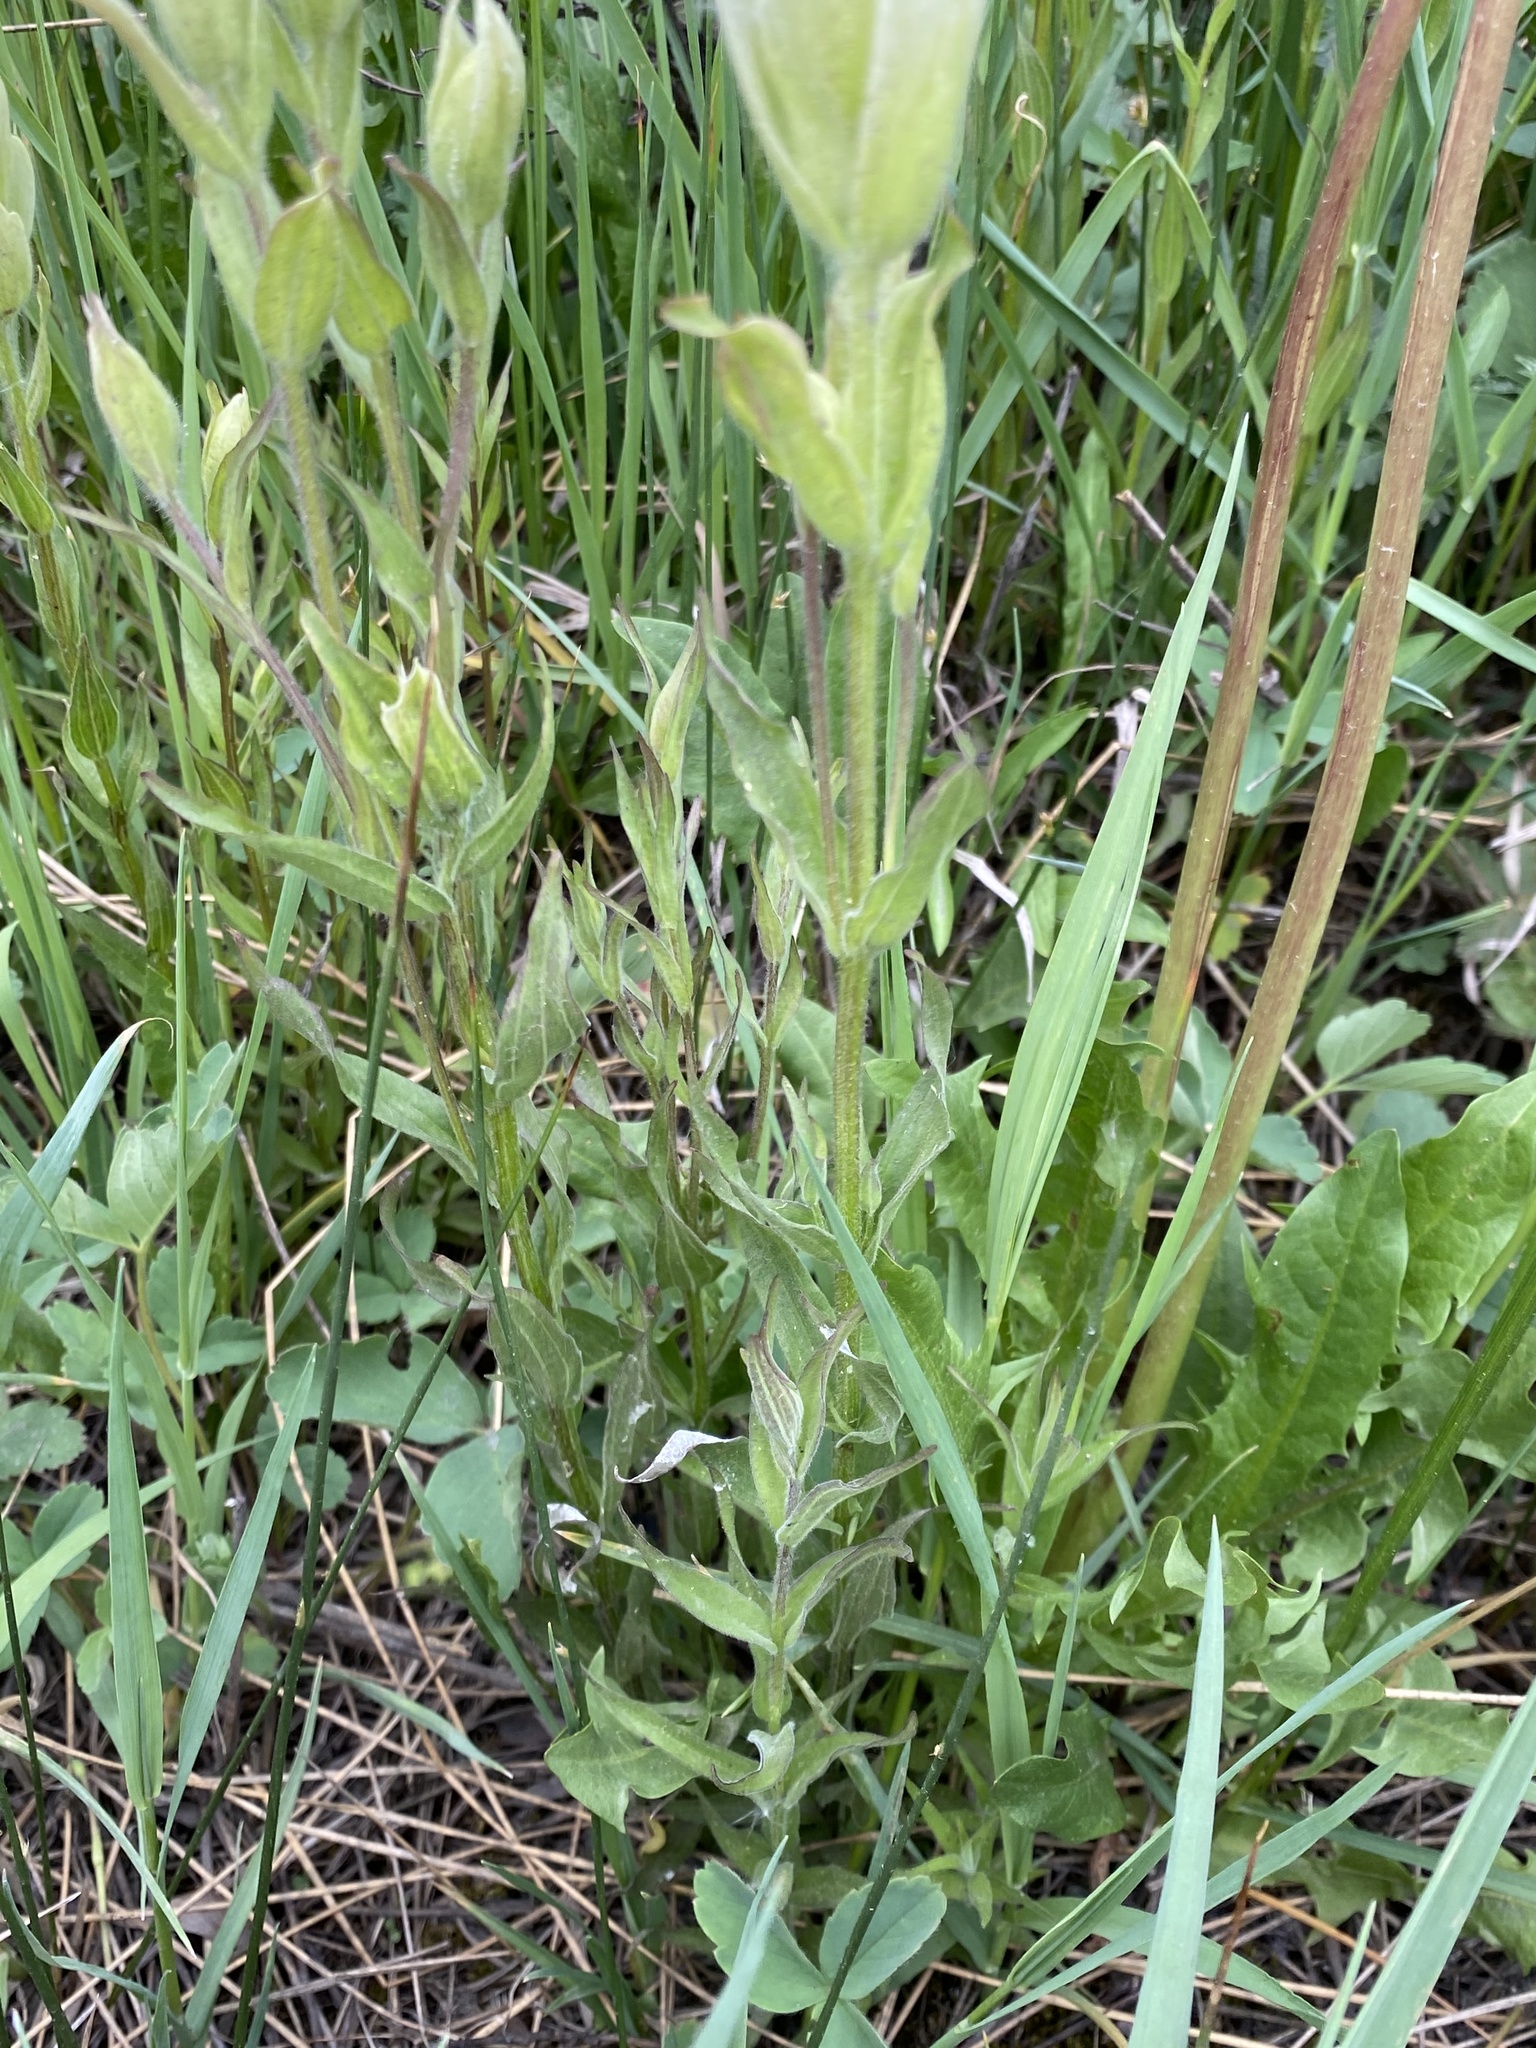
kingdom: Plantae
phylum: Tracheophyta
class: Magnoliopsida
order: Lamiales
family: Orobanchaceae
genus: Castilleja
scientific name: Castilleja septentrionalis
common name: Northeastern paintbrush
